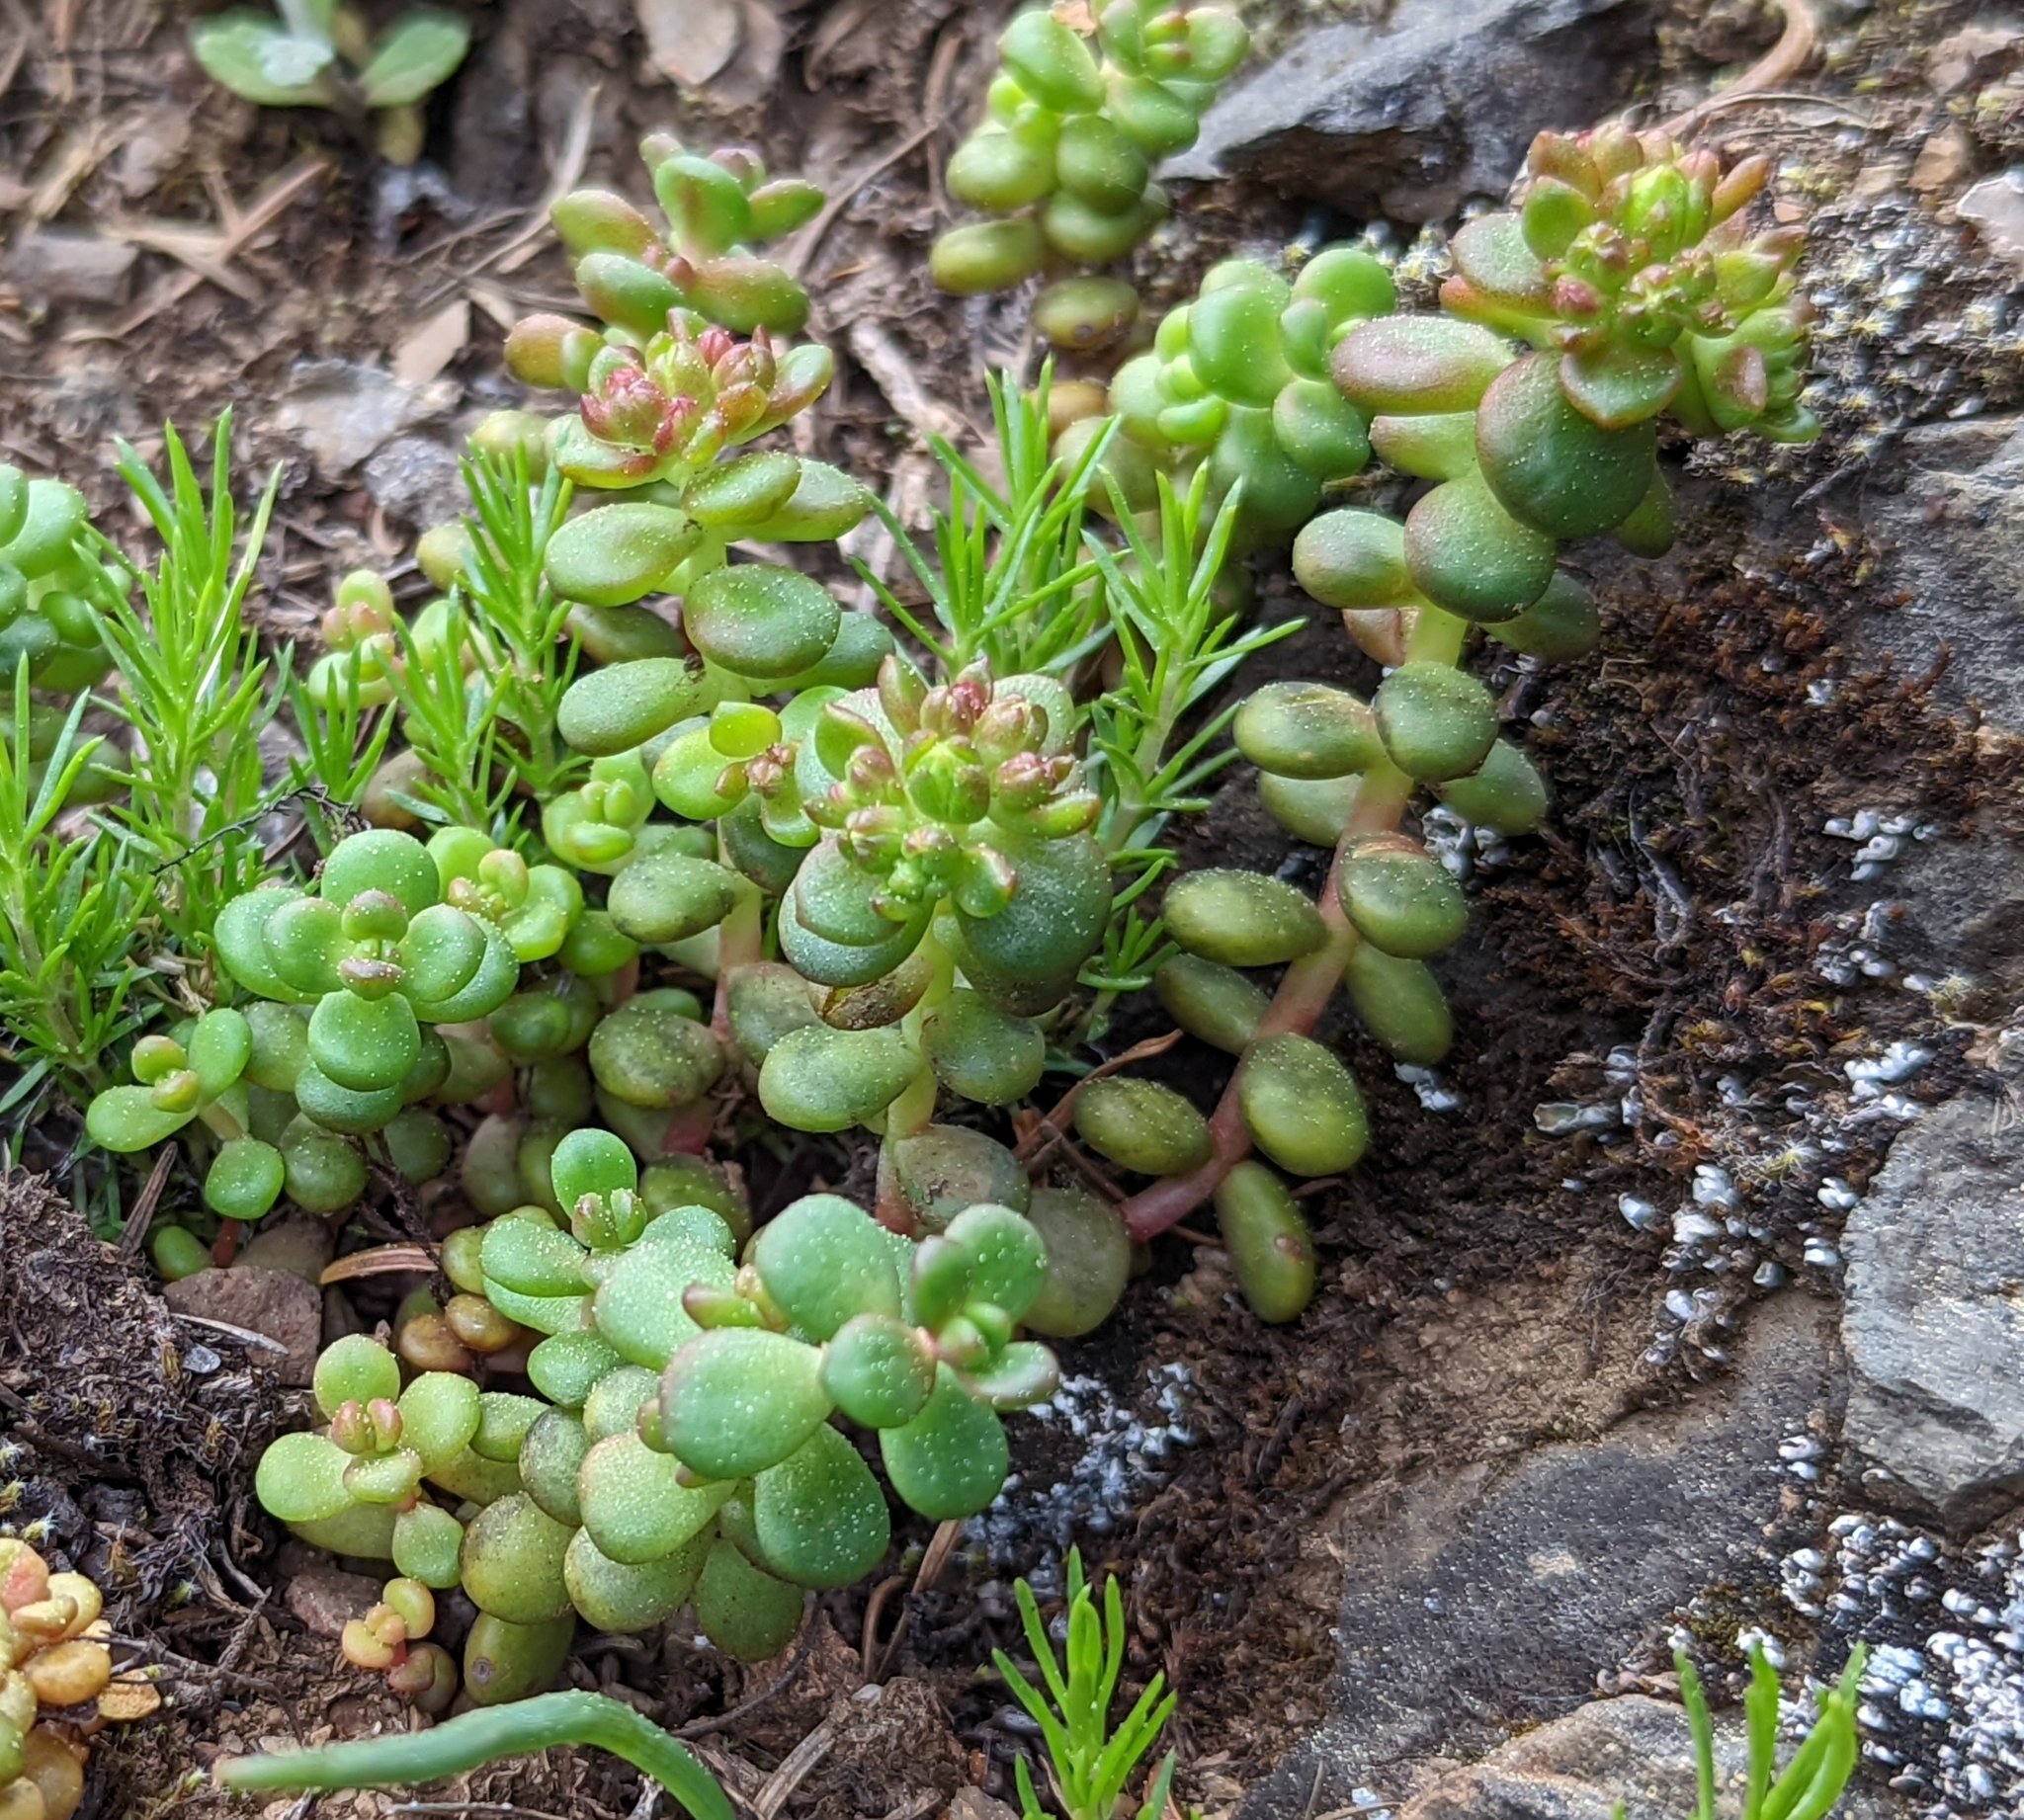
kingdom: Plantae
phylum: Tracheophyta
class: Magnoliopsida
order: Saxifragales
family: Crassulaceae
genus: Sedum
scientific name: Sedum divergens
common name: Cascade stonecrop
